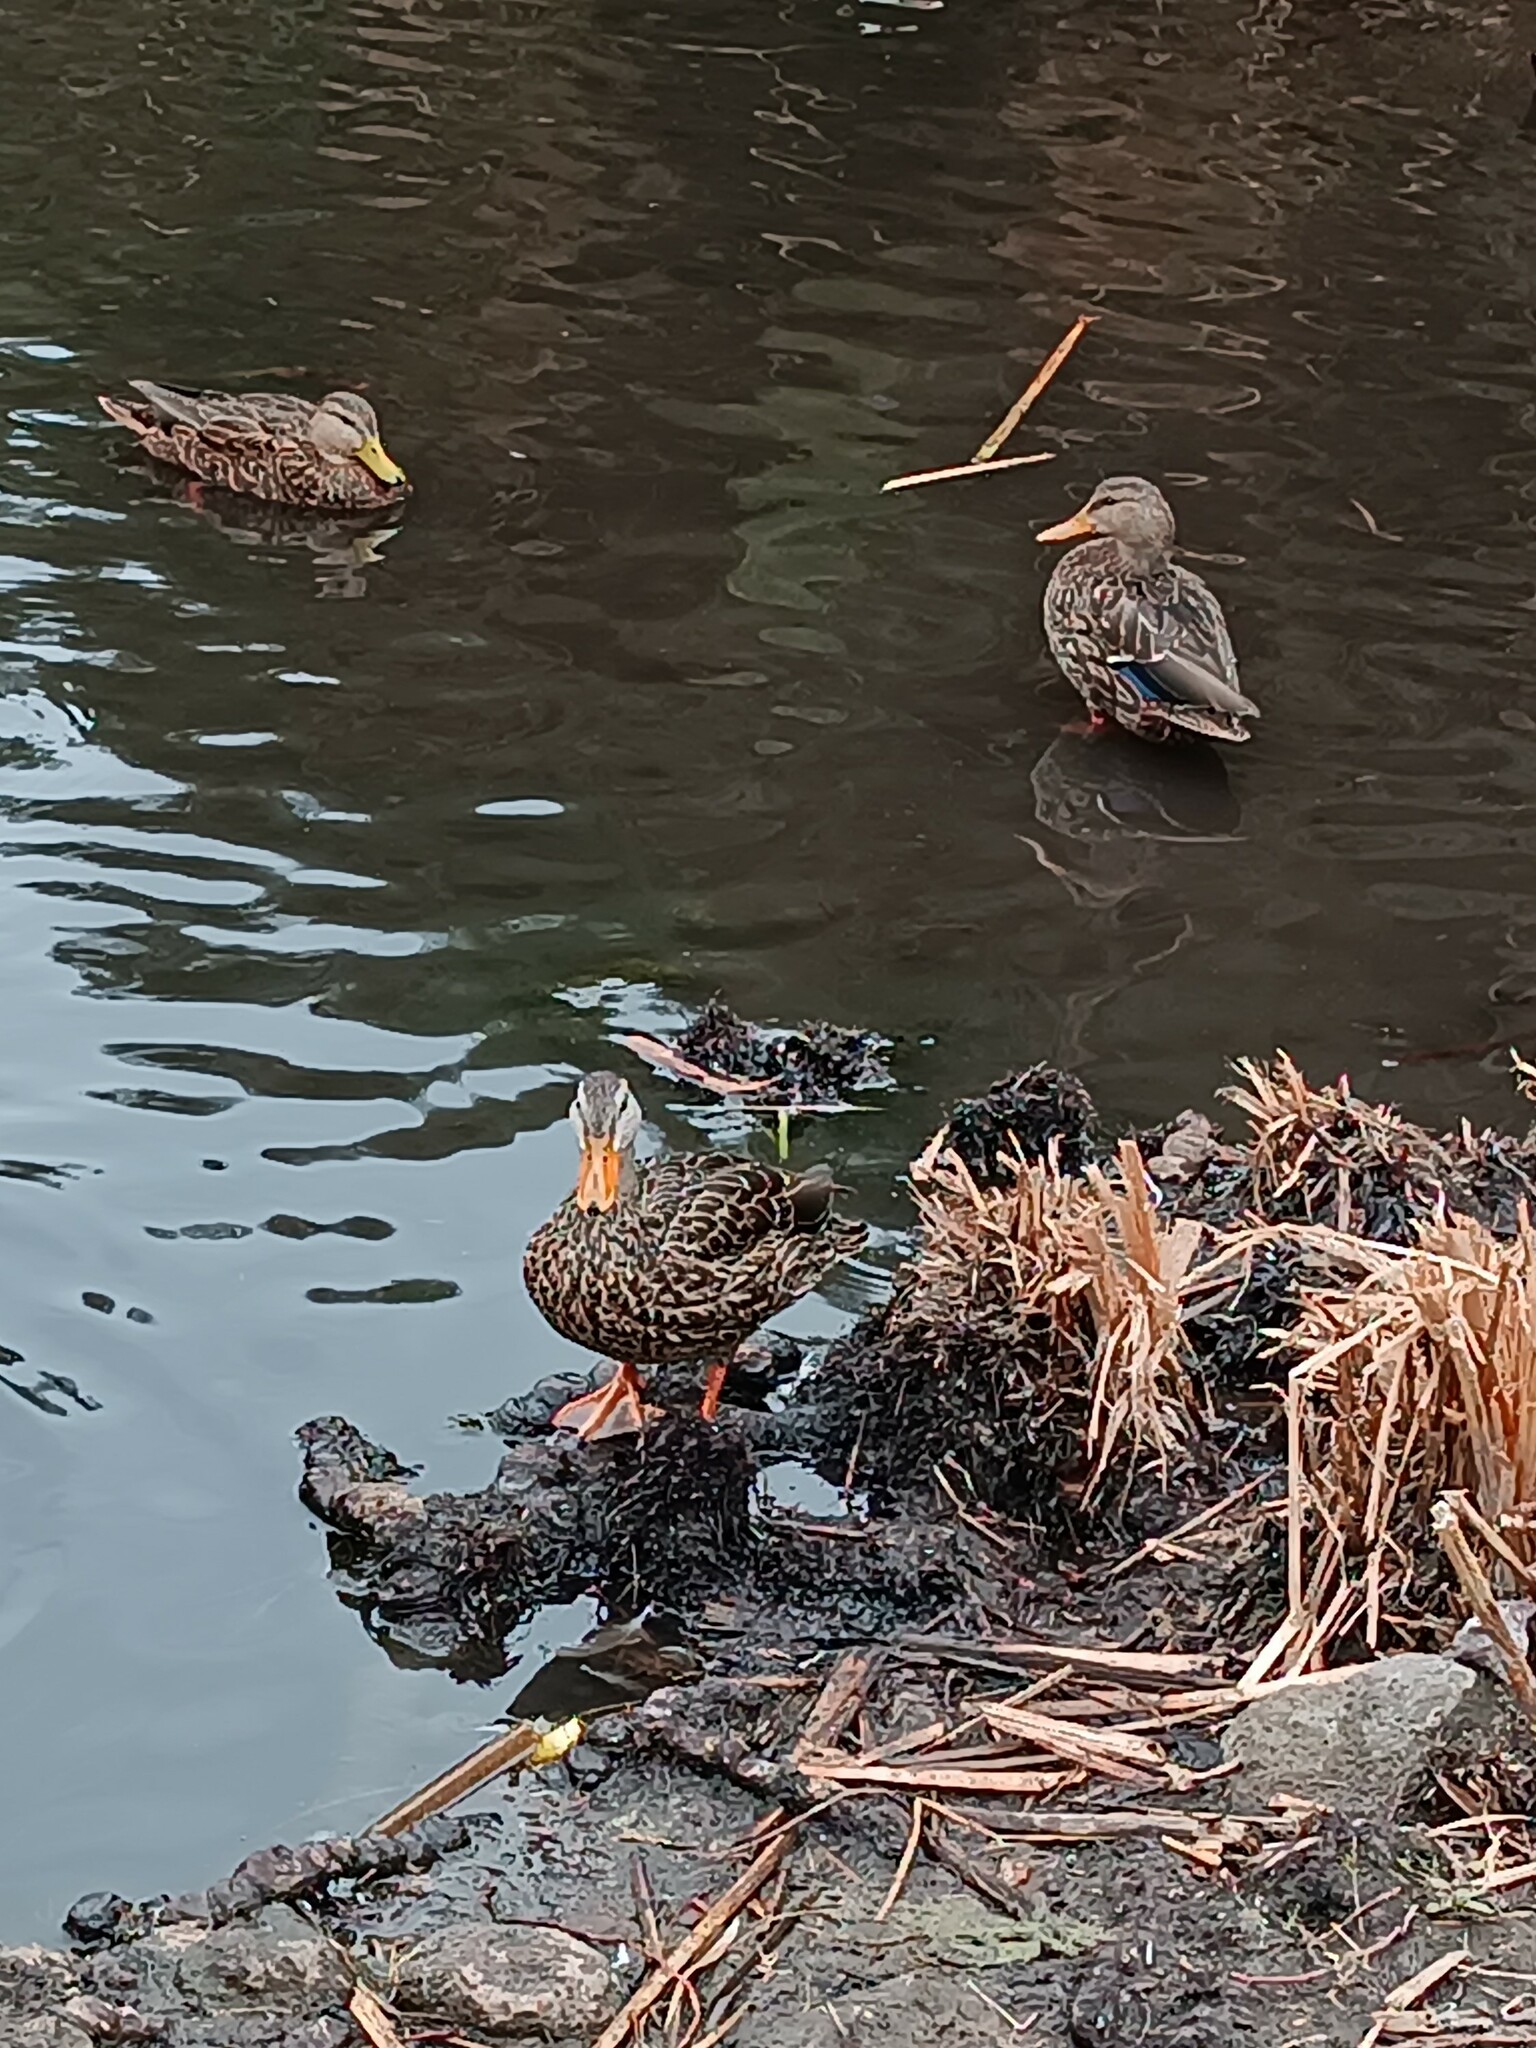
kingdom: Animalia
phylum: Chordata
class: Aves
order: Anseriformes
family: Anatidae
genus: Anas
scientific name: Anas diazi
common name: Mexican duck
